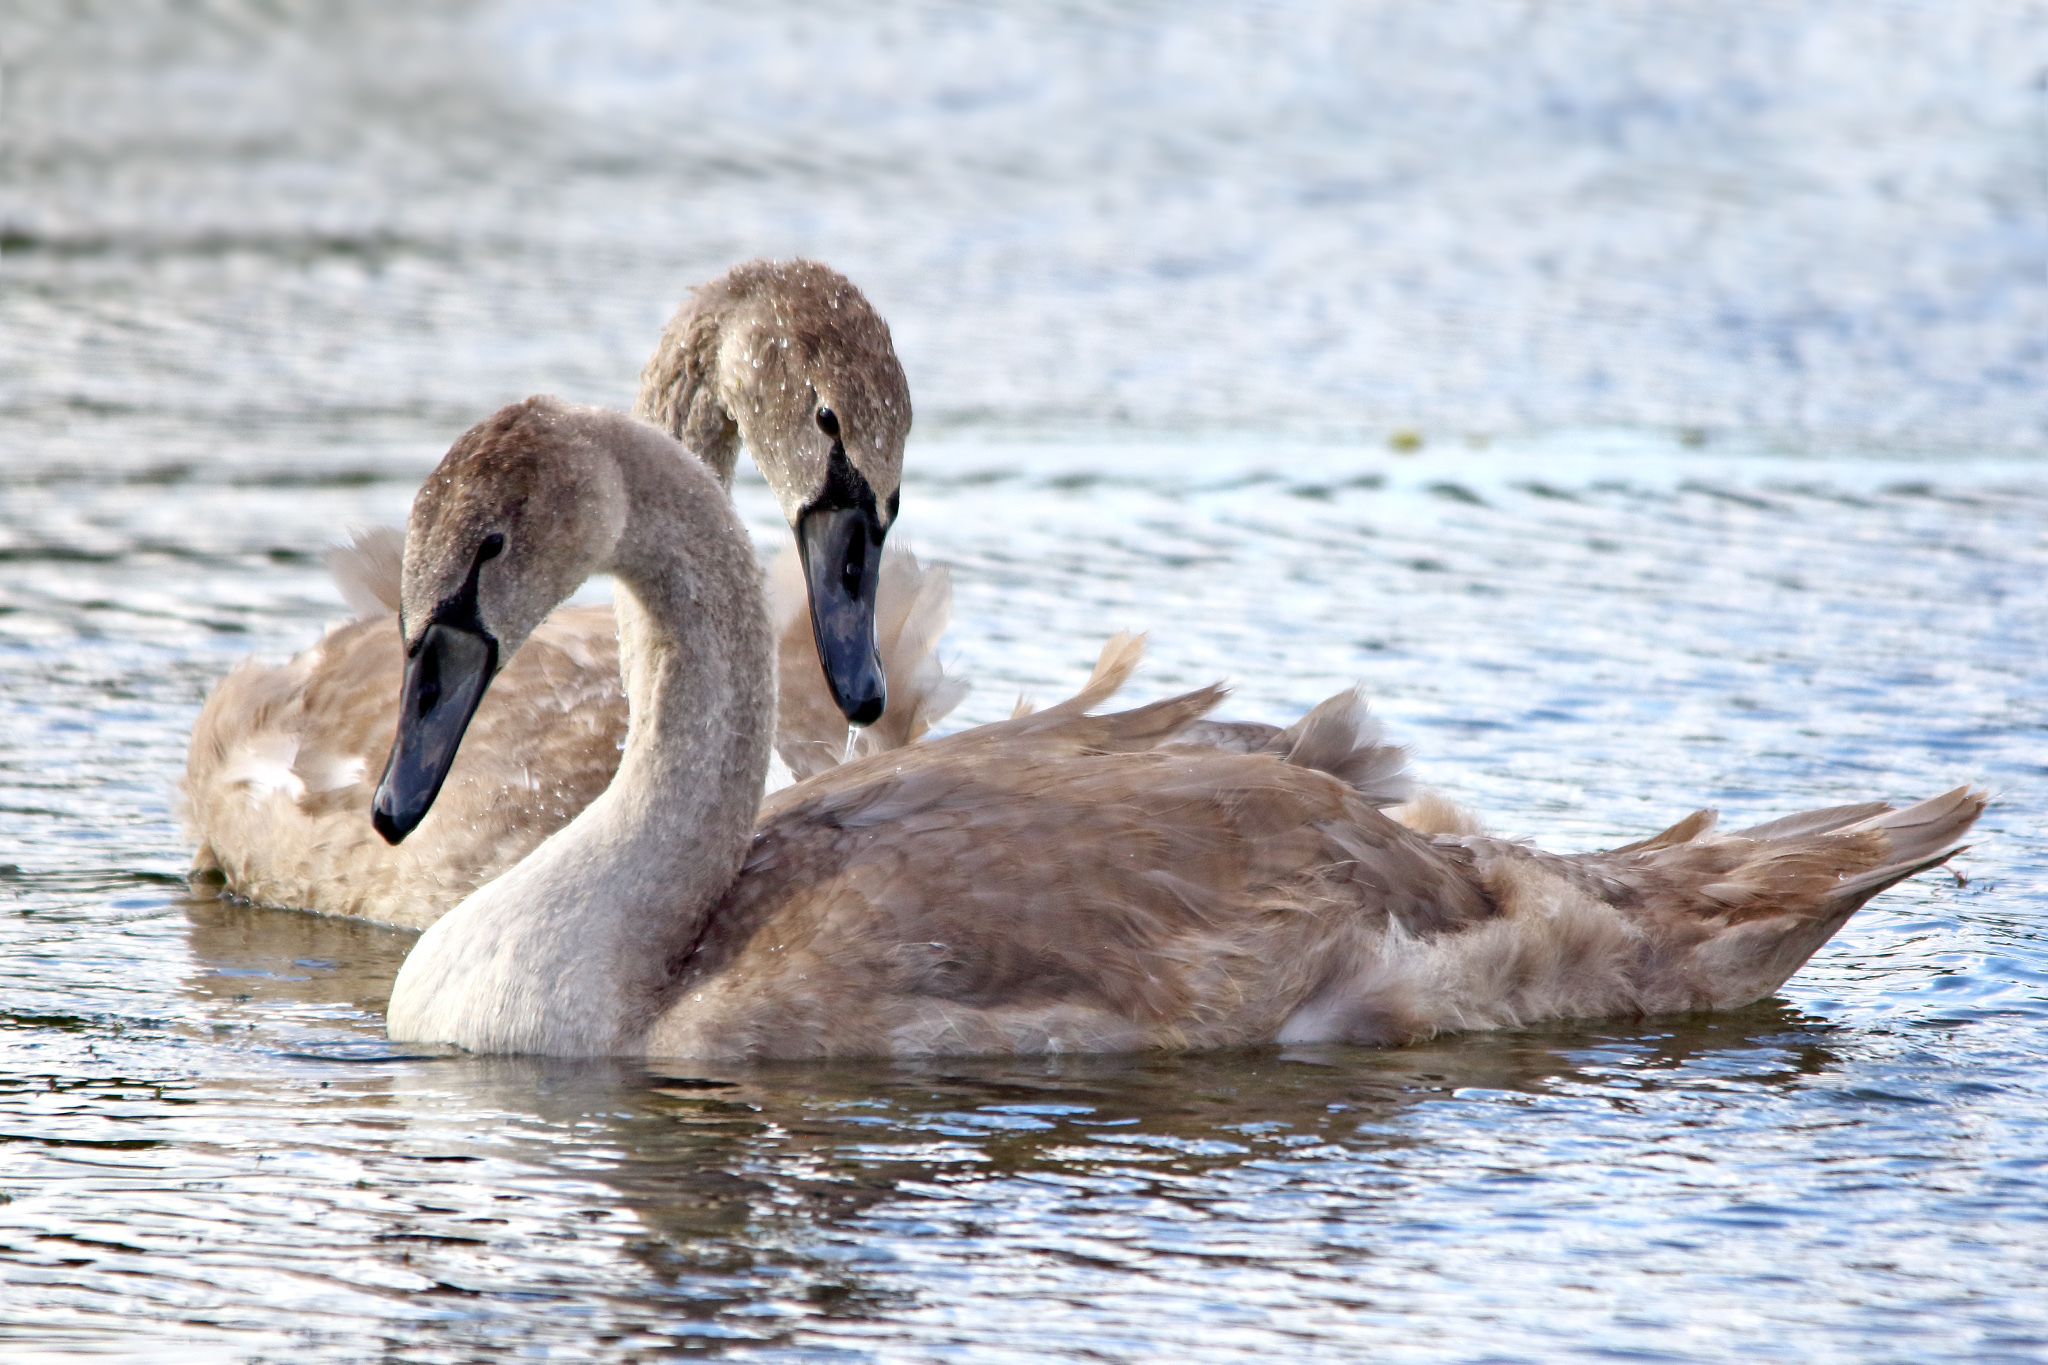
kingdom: Animalia
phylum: Chordata
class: Aves
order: Anseriformes
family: Anatidae
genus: Cygnus
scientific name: Cygnus olor
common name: Mute swan
